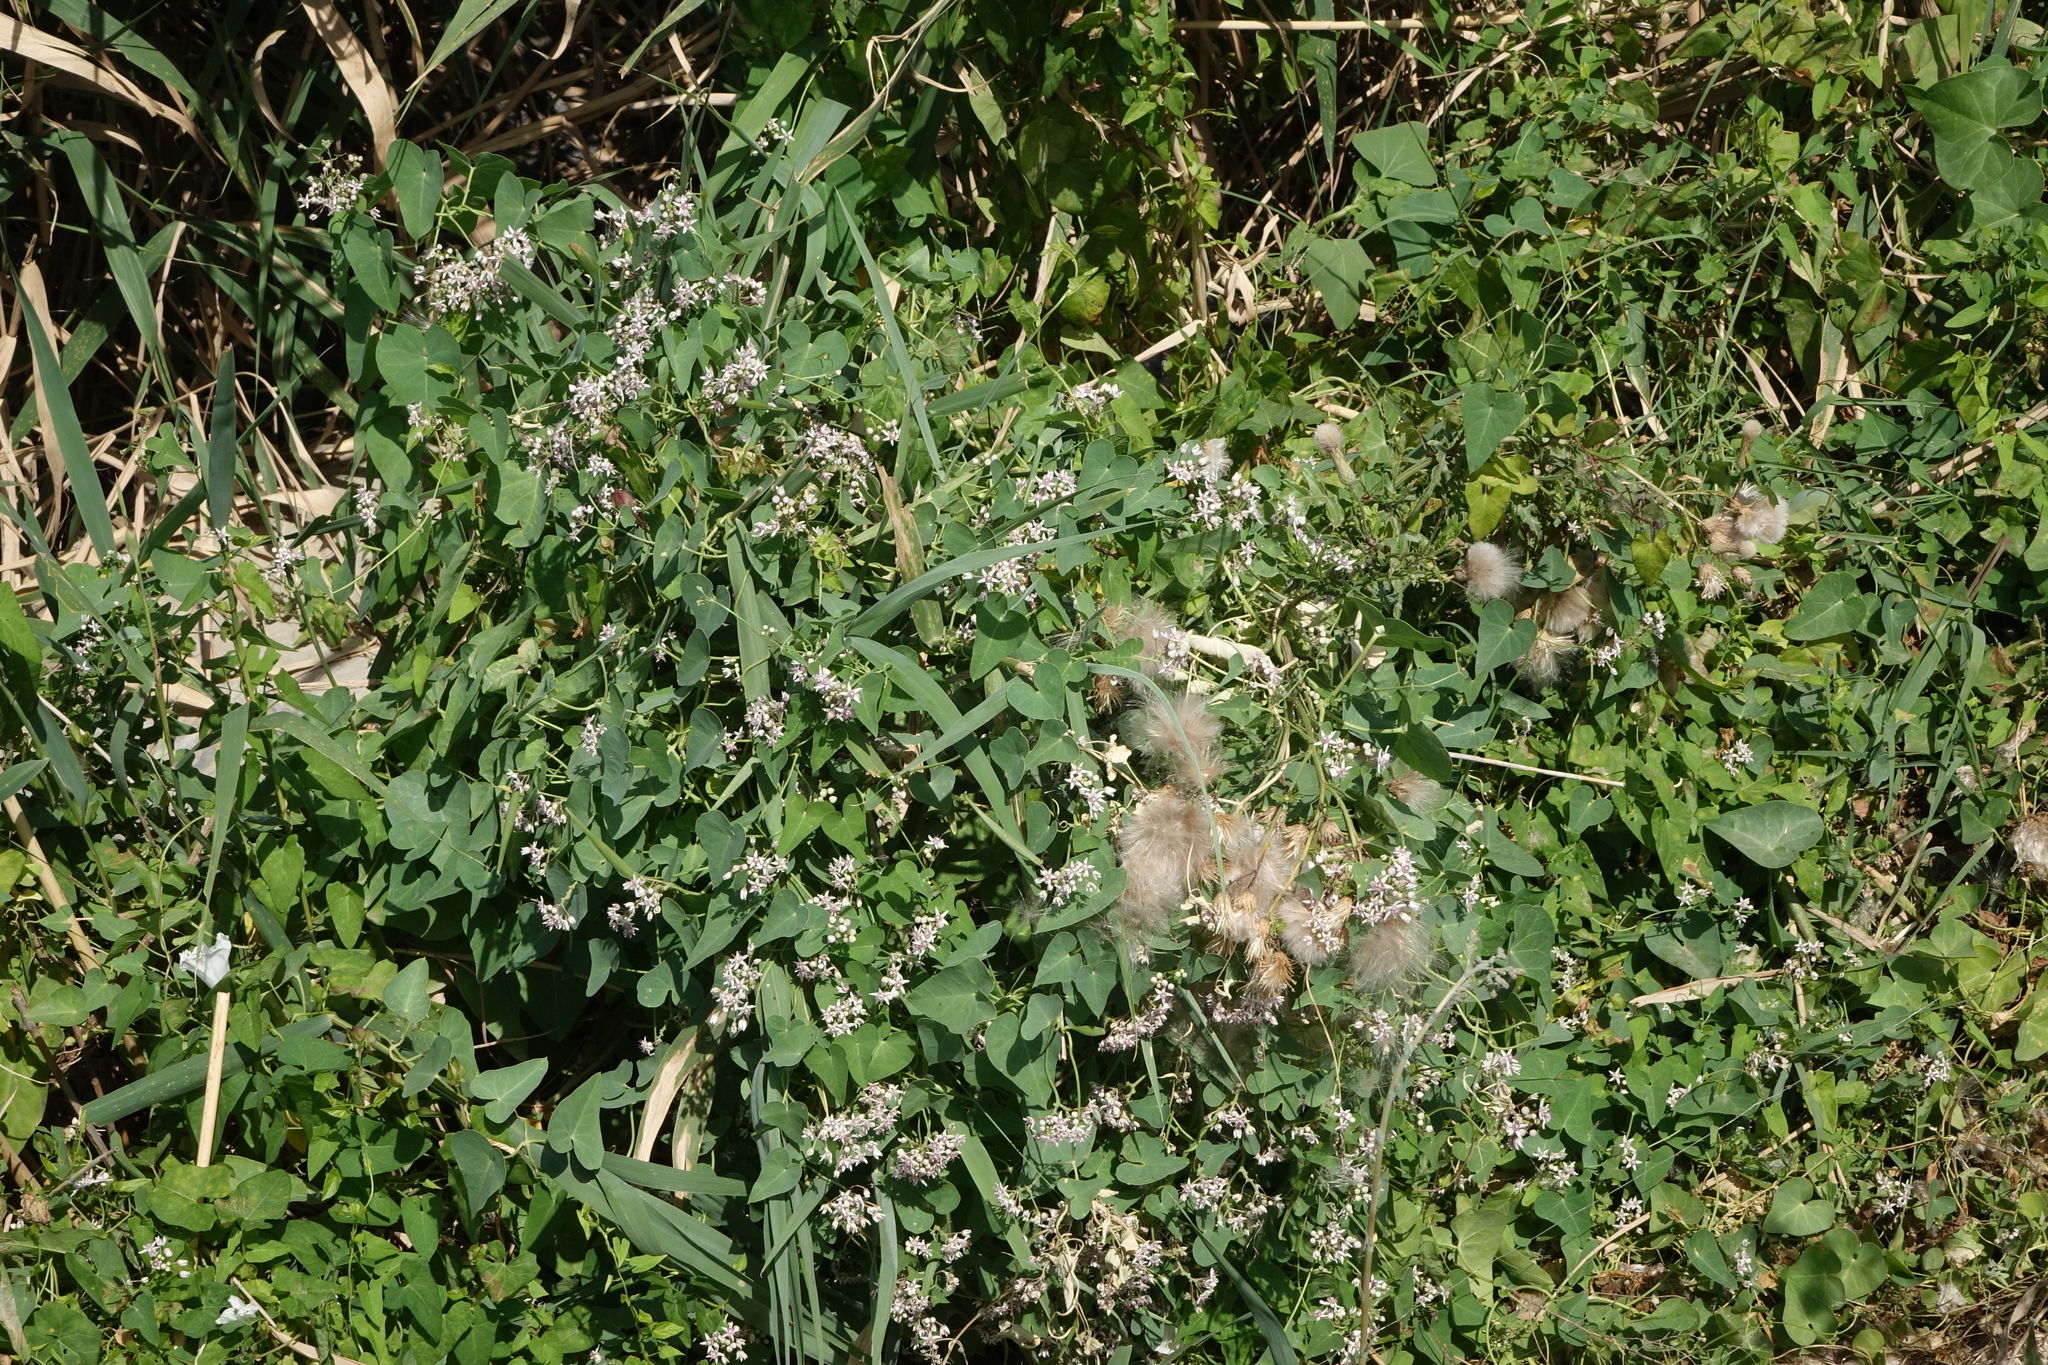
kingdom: Plantae
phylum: Tracheophyta
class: Magnoliopsida
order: Gentianales
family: Apocynaceae
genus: Cynanchum
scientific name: Cynanchum acutum
